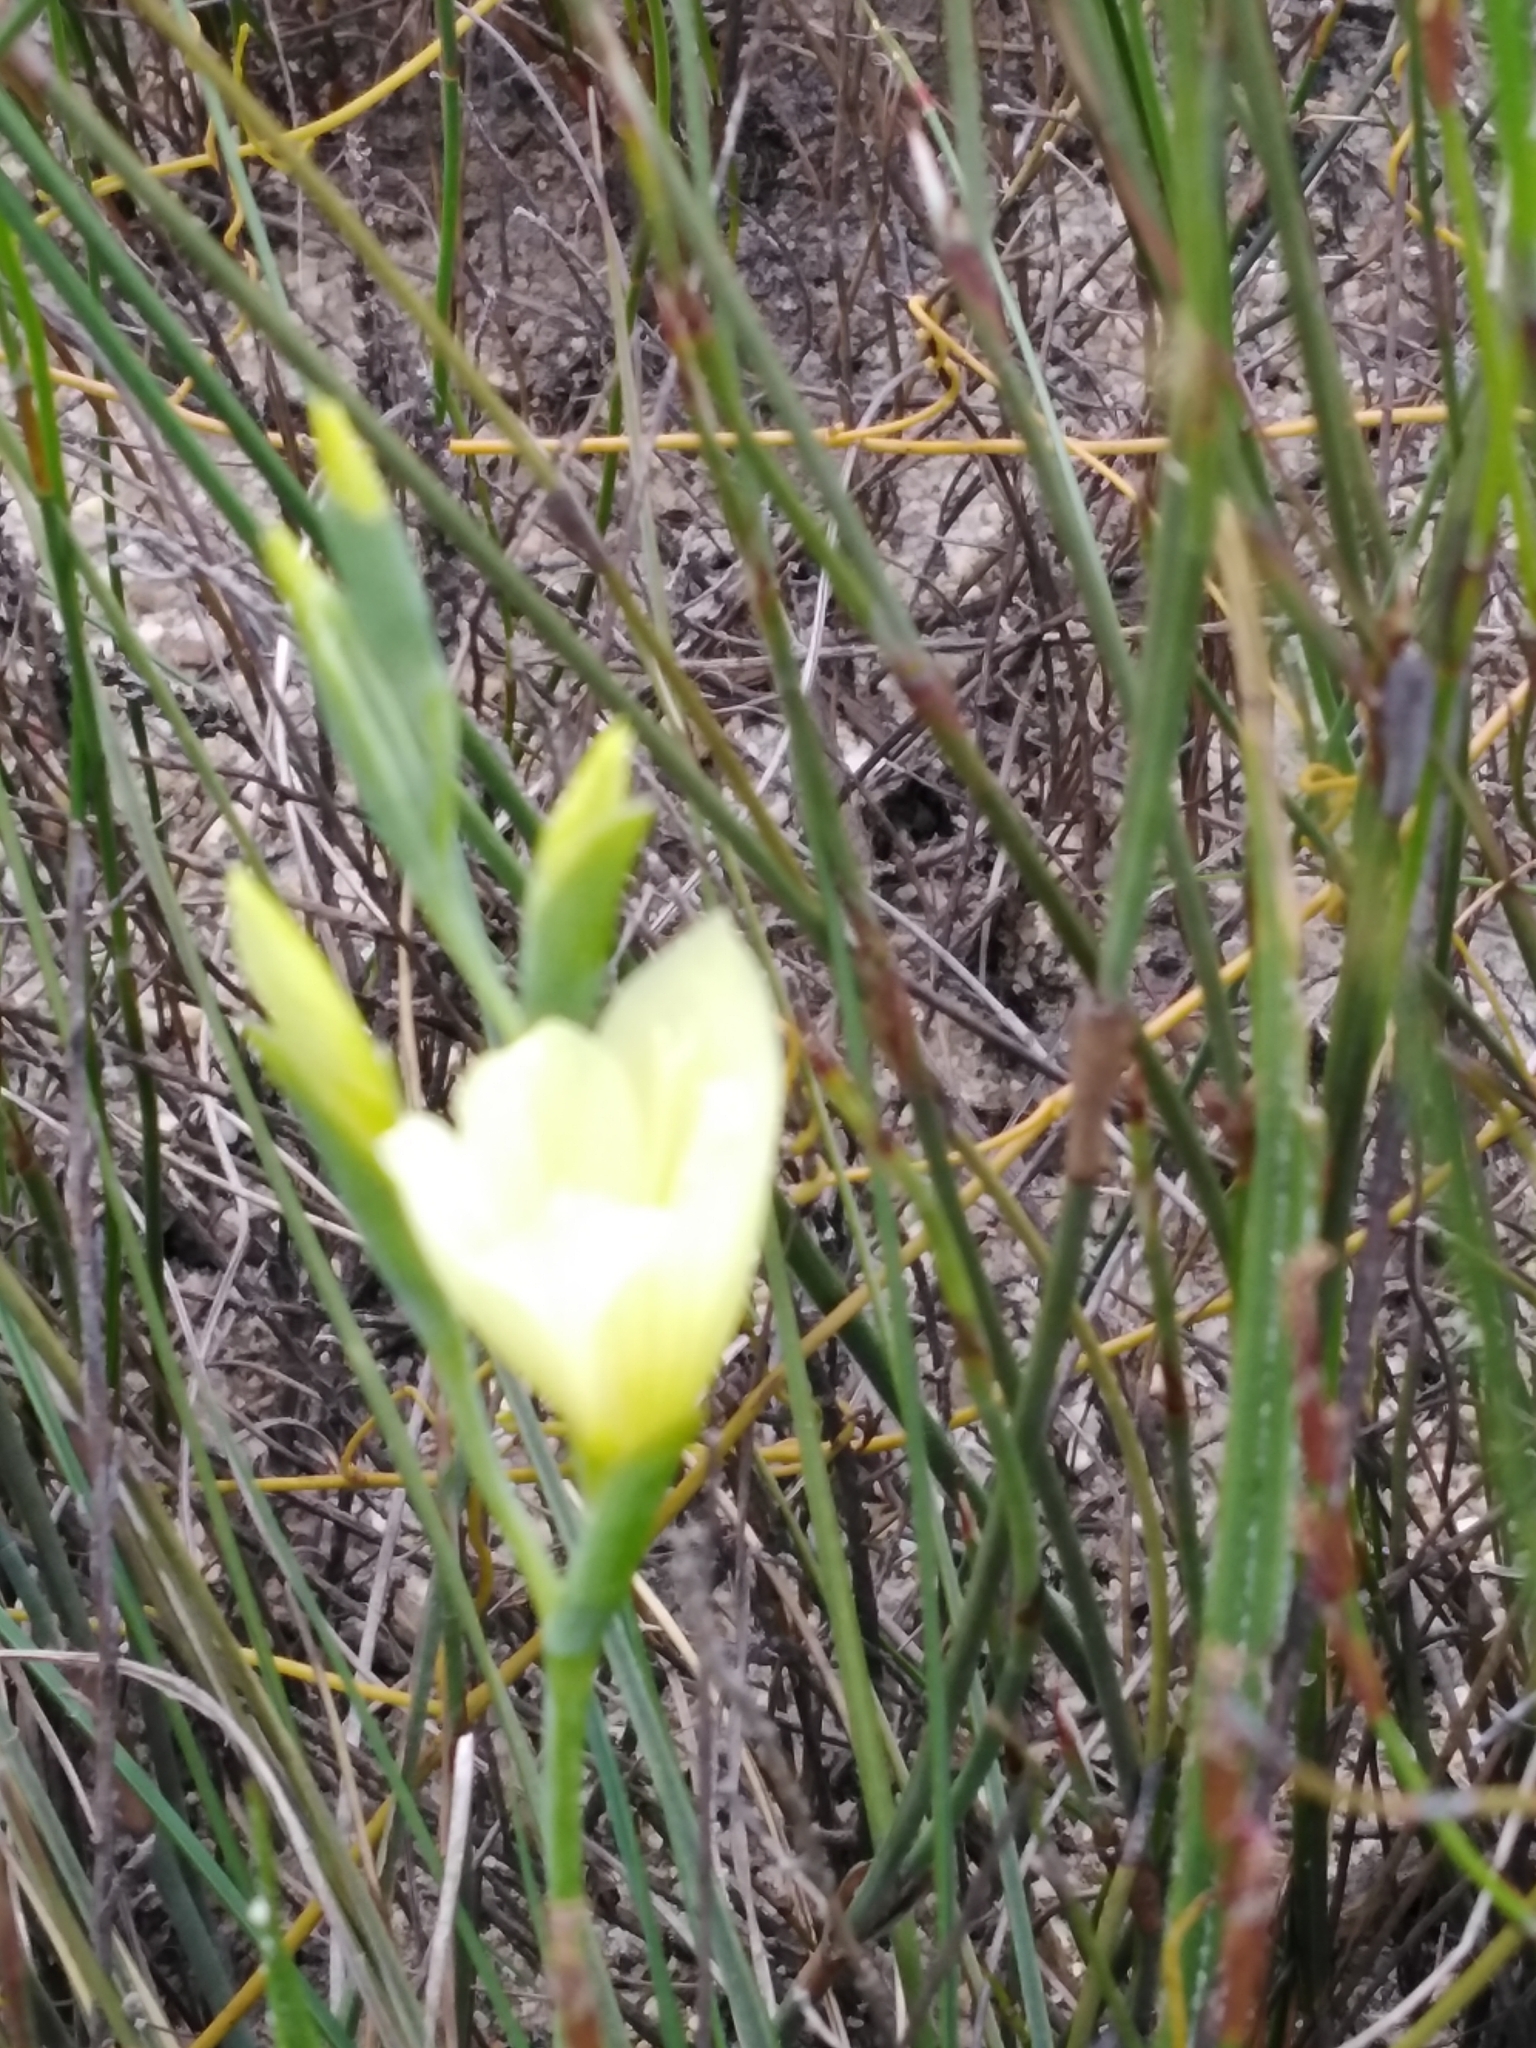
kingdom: Plantae
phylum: Tracheophyta
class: Liliopsida
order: Asparagales
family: Iridaceae
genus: Geissorhiza
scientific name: Geissorhiza imbricata
